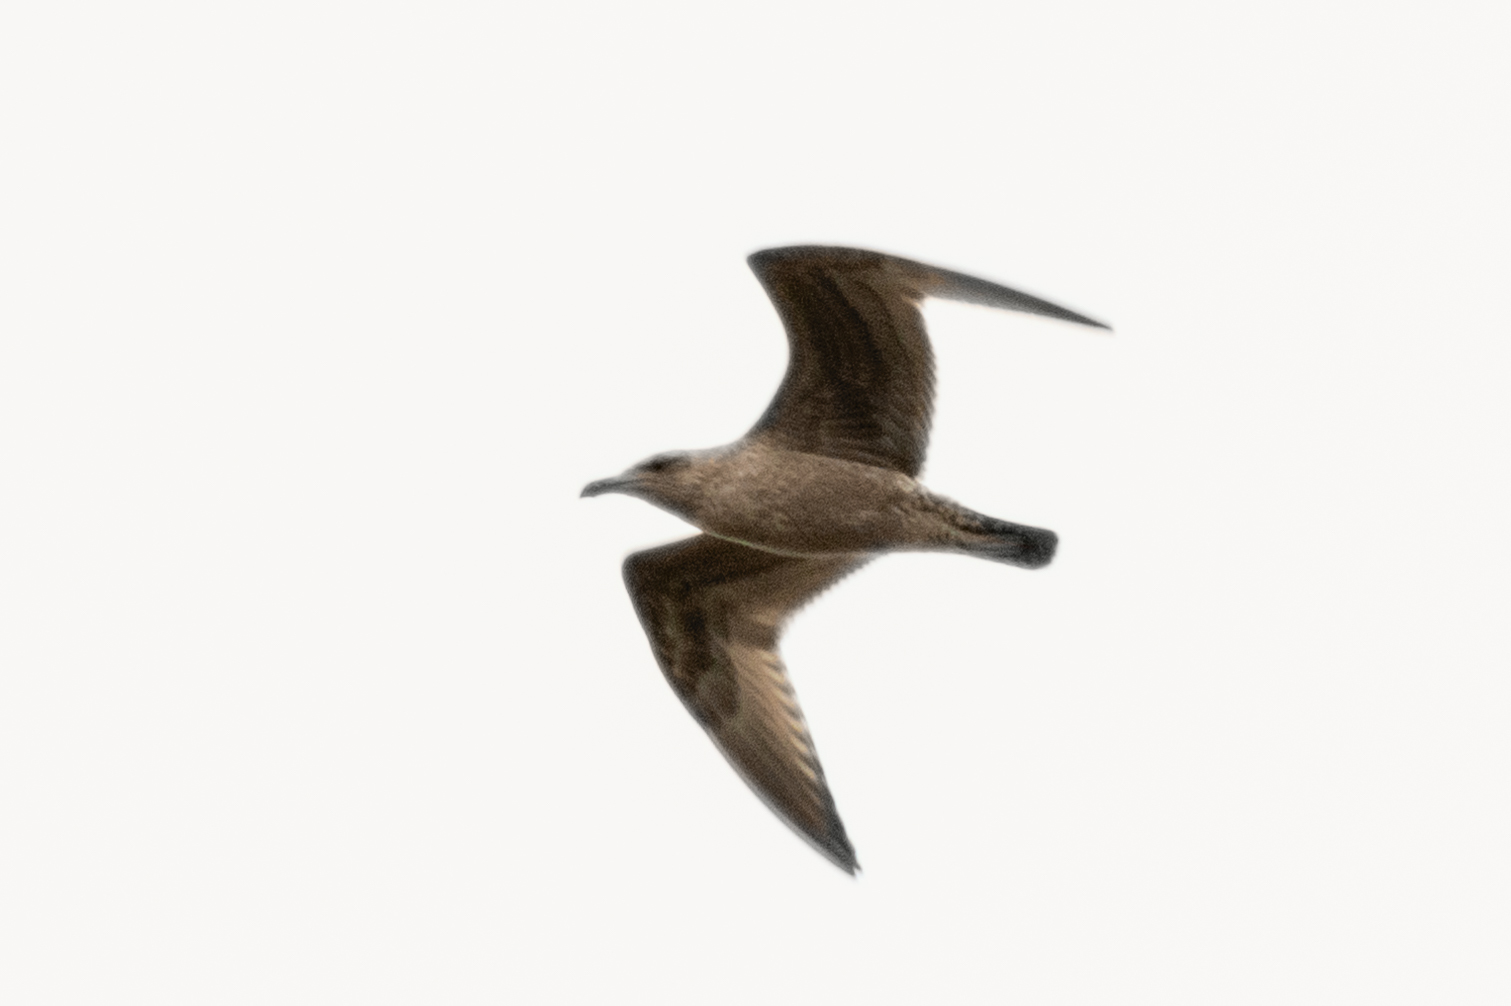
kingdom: Animalia
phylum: Chordata
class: Aves
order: Charadriiformes
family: Laridae
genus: Larus
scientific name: Larus argentatus
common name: Herring gull
